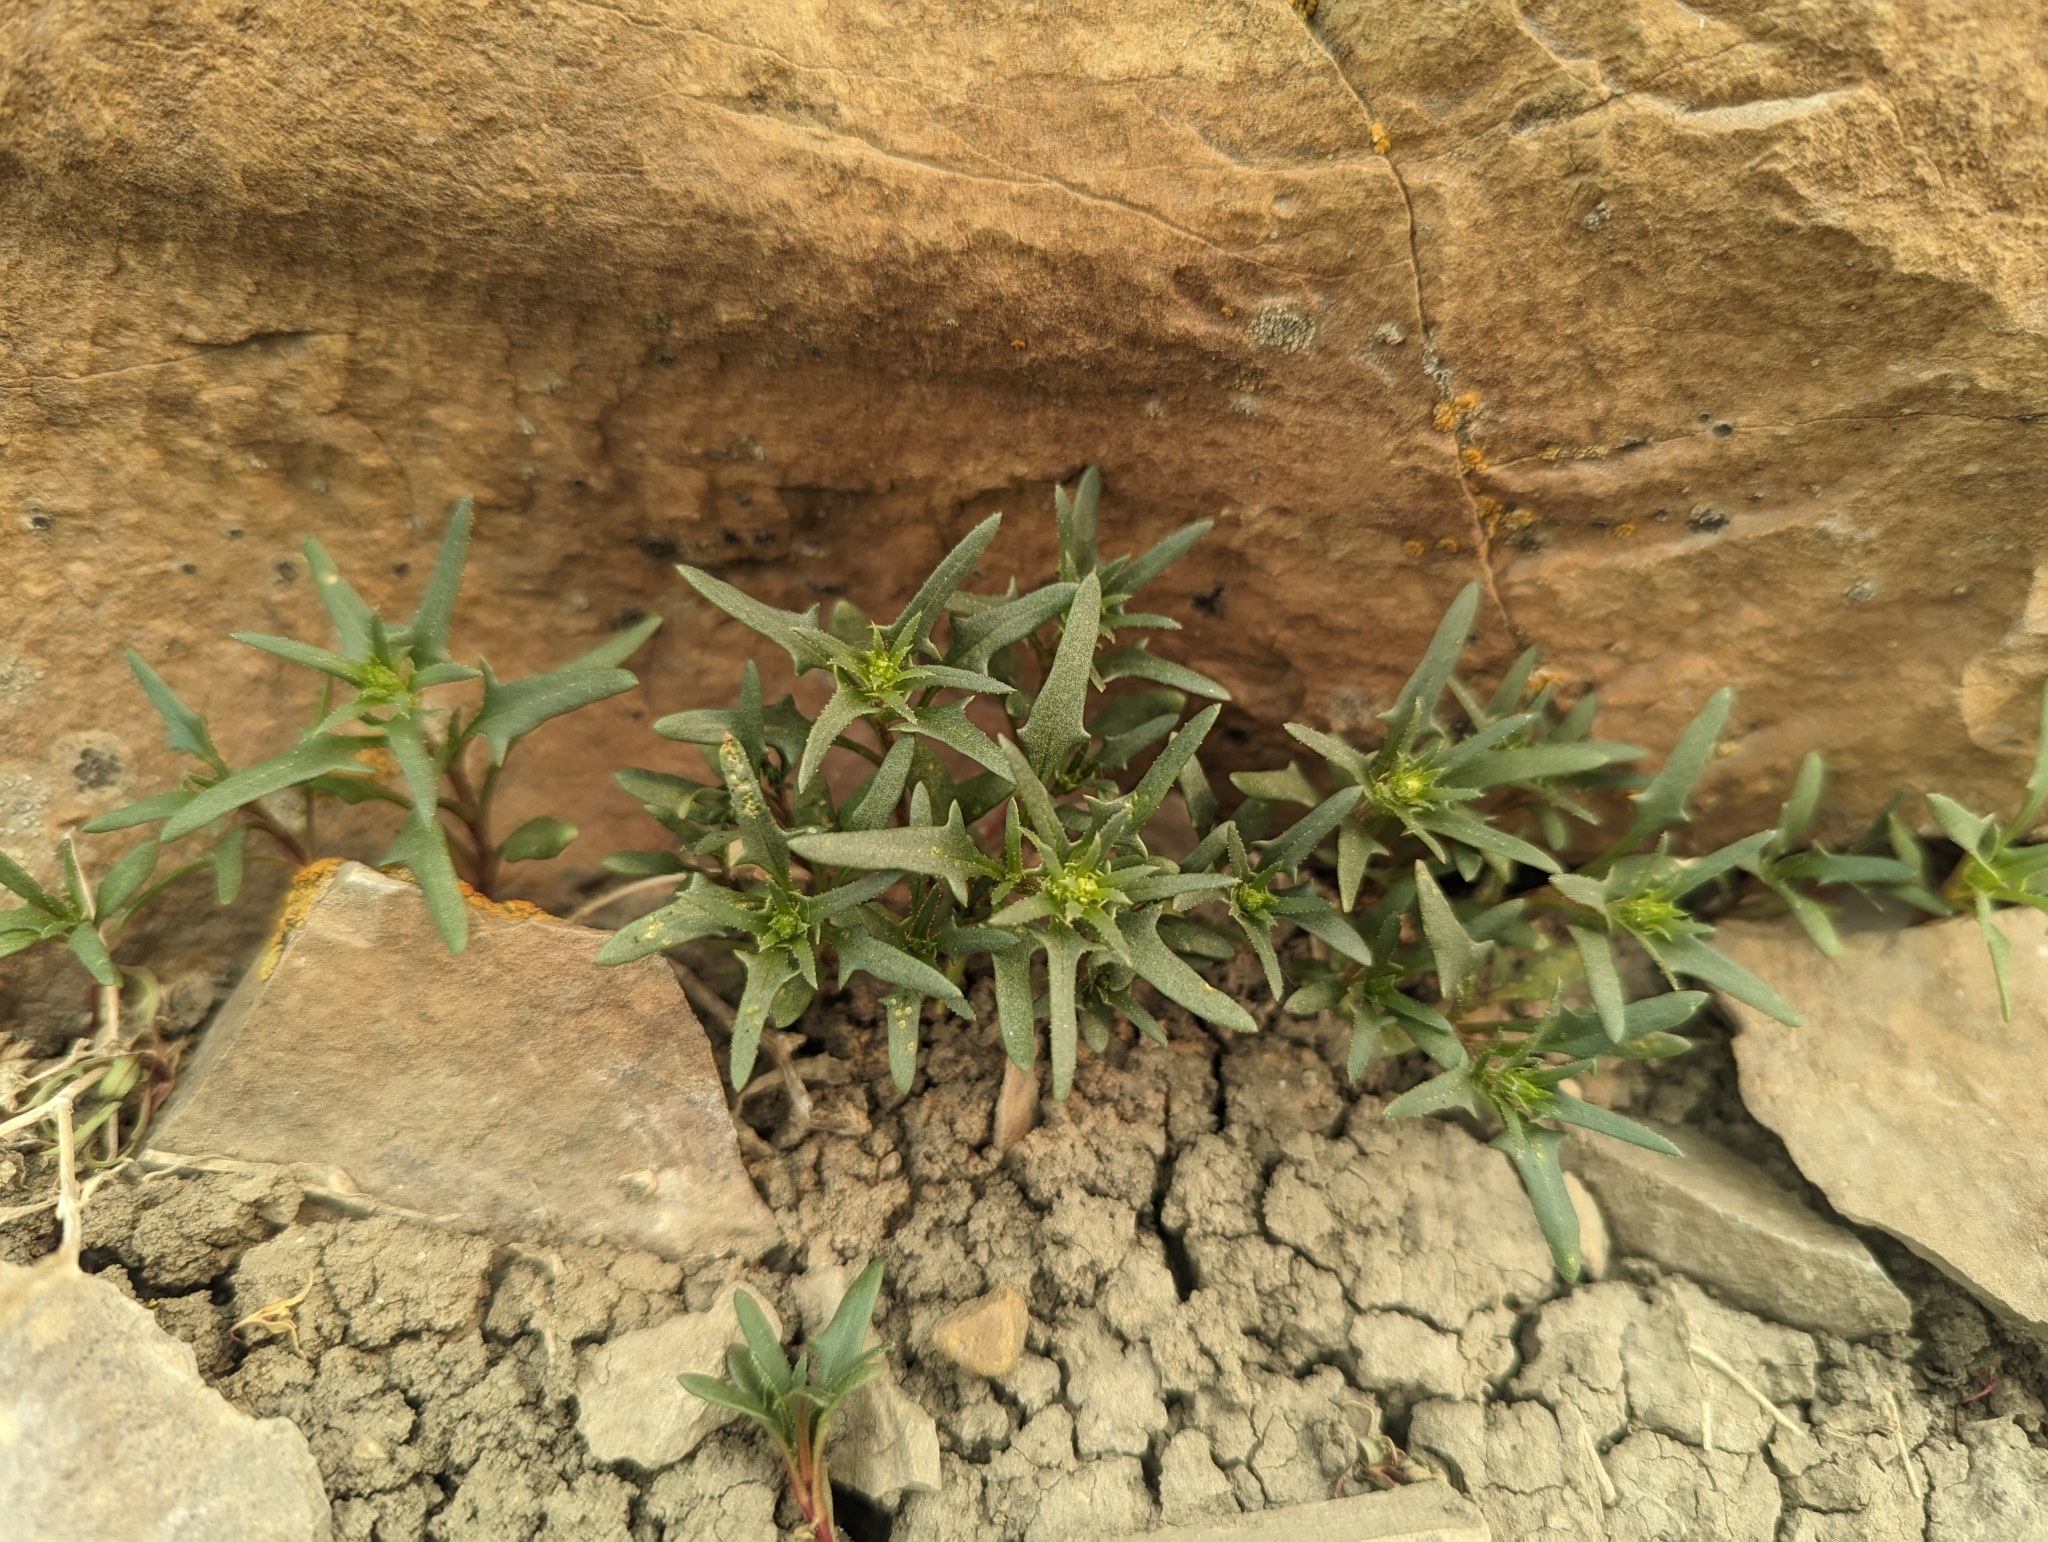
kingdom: Plantae
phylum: Tracheophyta
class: Magnoliopsida
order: Caryophyllales
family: Amaranthaceae
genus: Blitum
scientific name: Blitum nuttallianum
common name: Poverty-weed
